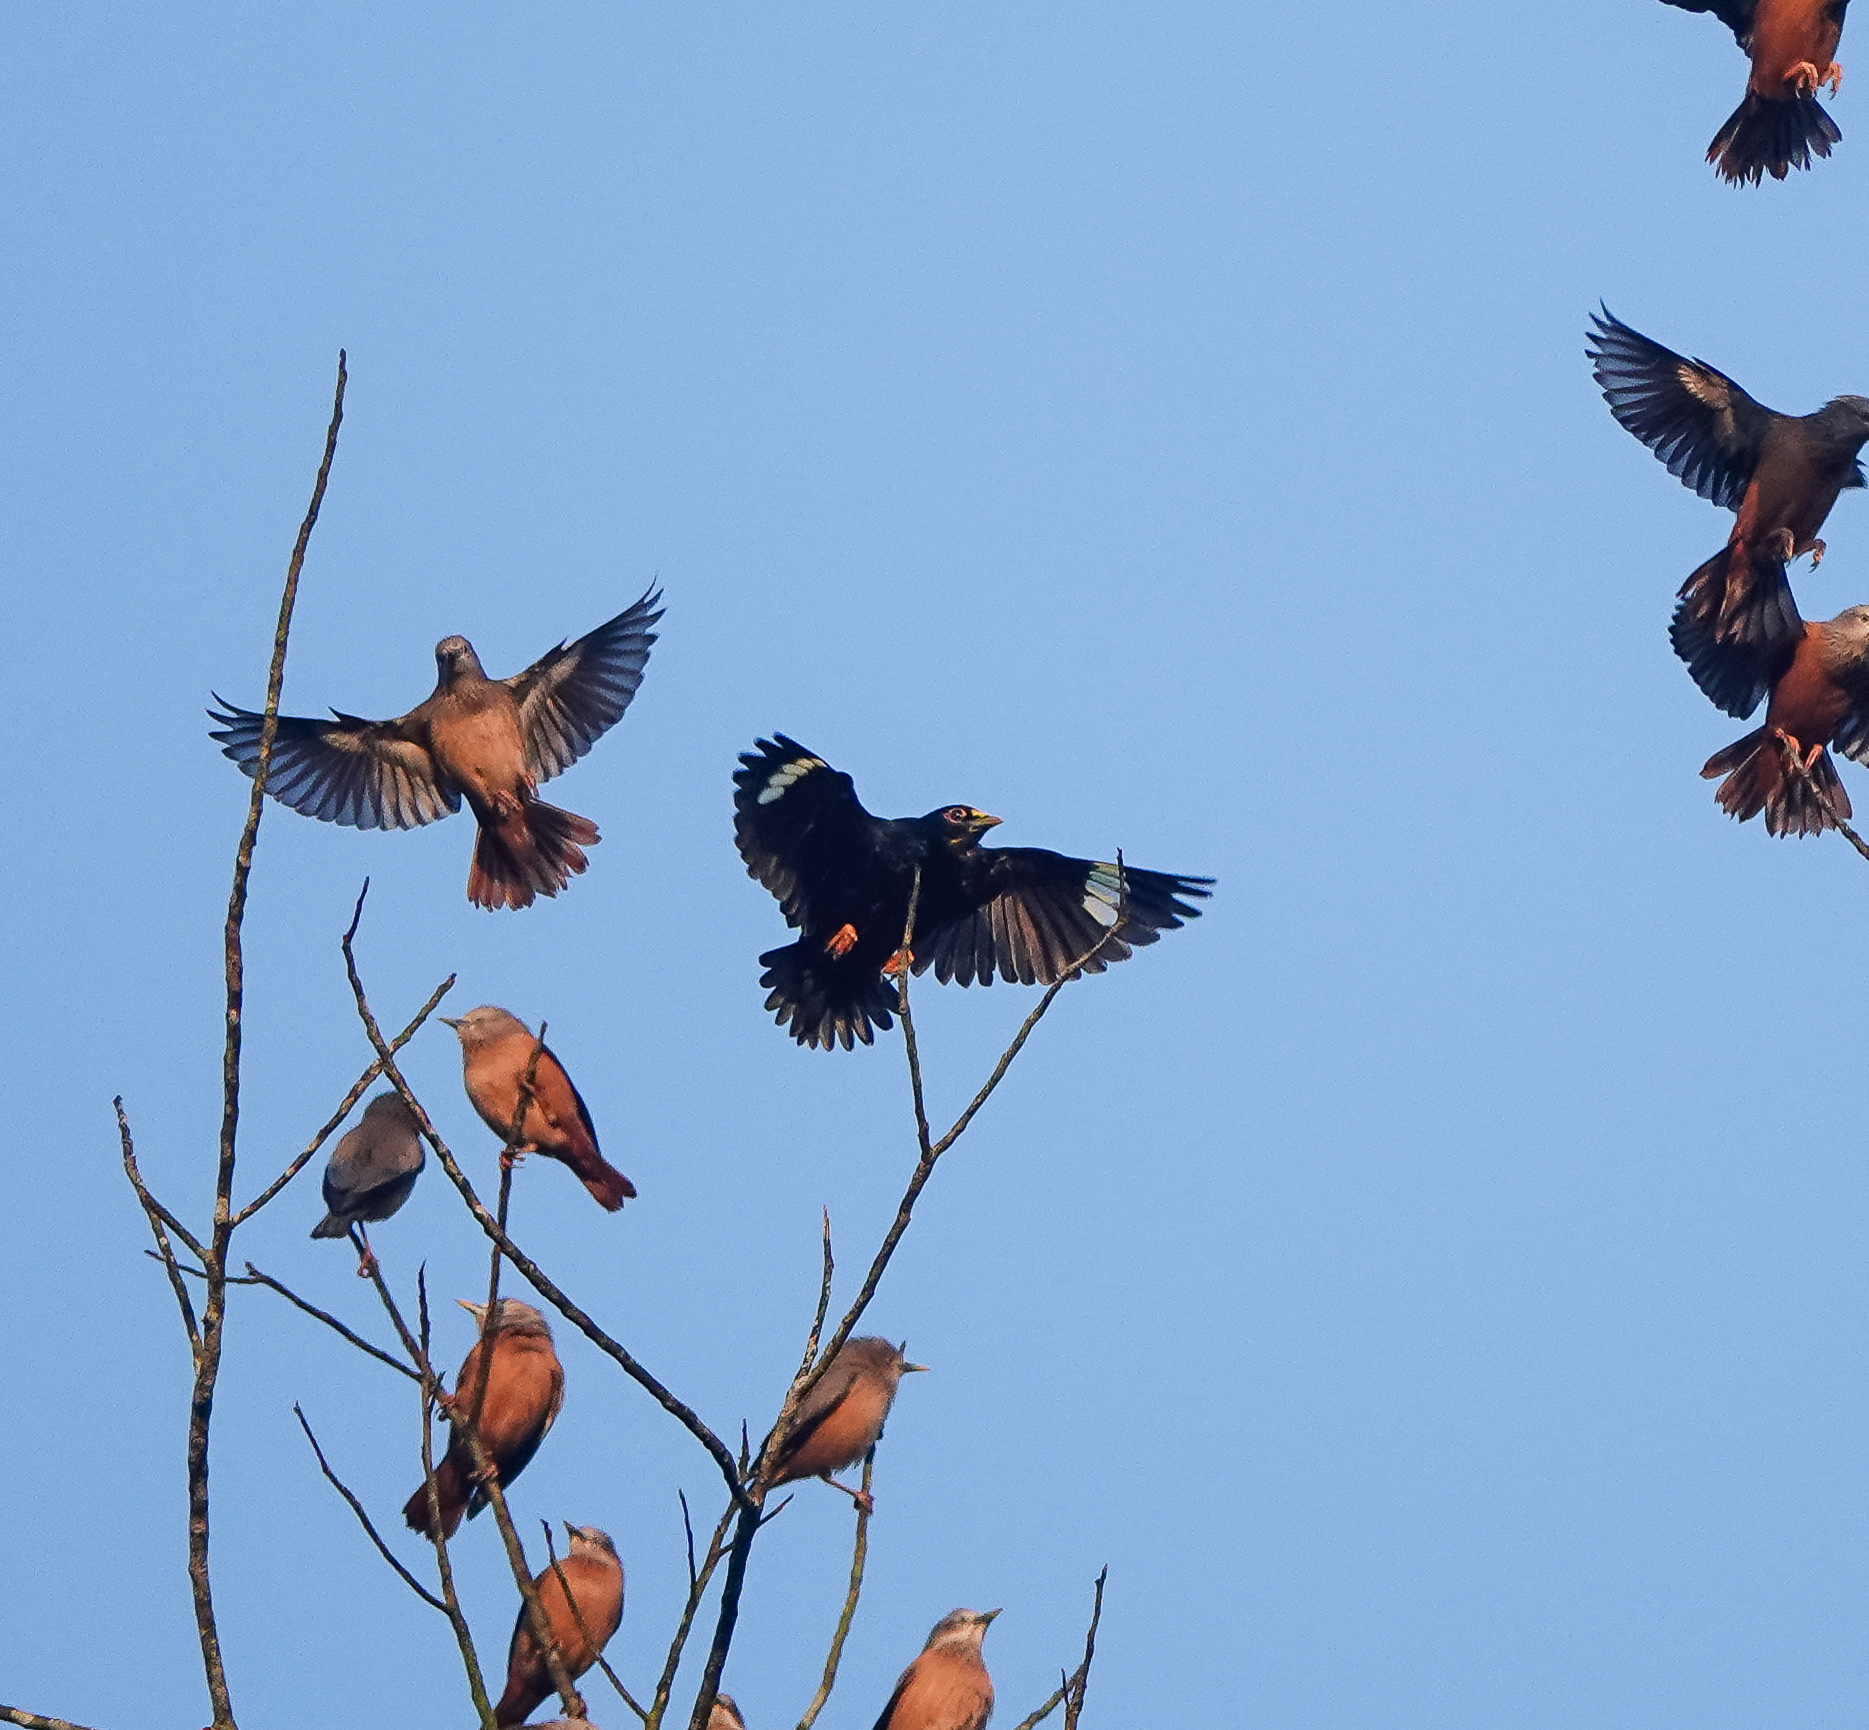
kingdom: Animalia
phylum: Chordata
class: Aves
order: Passeriformes
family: Sturnidae
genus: Ampeliceps
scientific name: Ampeliceps coronatus
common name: Golden-crested myna
